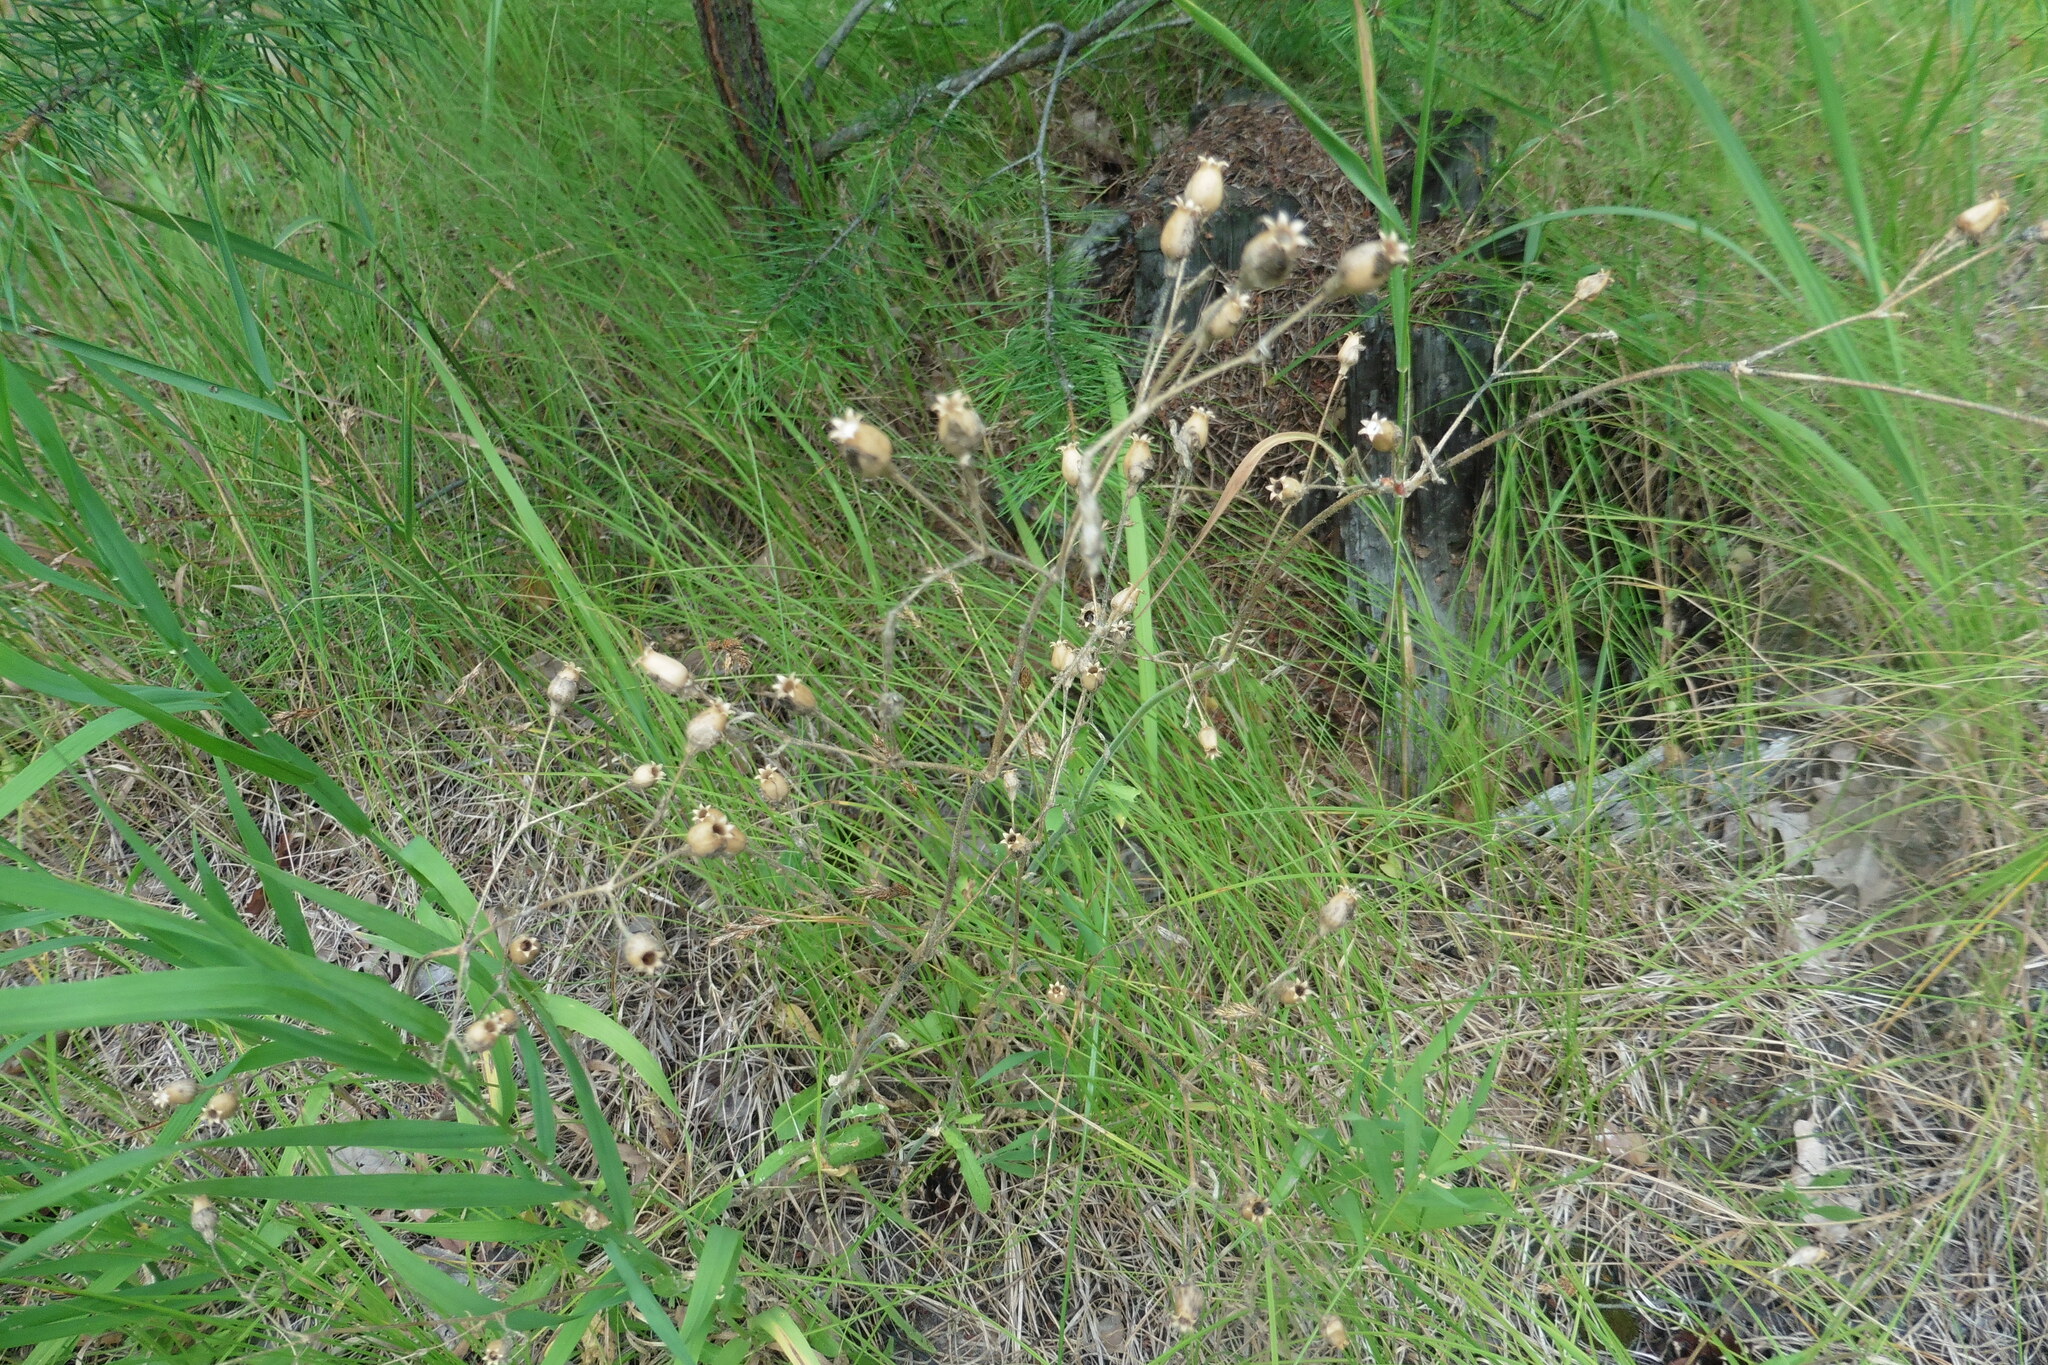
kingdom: Plantae
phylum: Tracheophyta
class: Magnoliopsida
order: Caryophyllales
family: Caryophyllaceae
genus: Silene
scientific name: Silene nutans
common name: Nottingham catchfly
